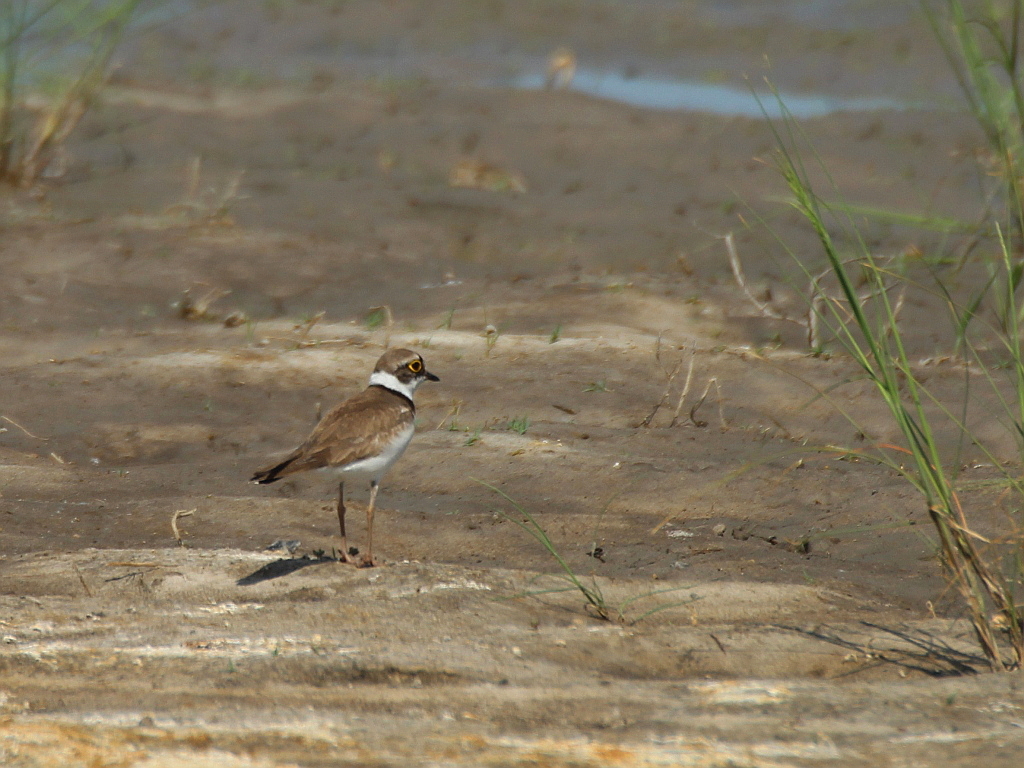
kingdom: Animalia
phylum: Chordata
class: Aves
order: Charadriiformes
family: Charadriidae
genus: Charadrius
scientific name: Charadrius dubius
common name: Little ringed plover
